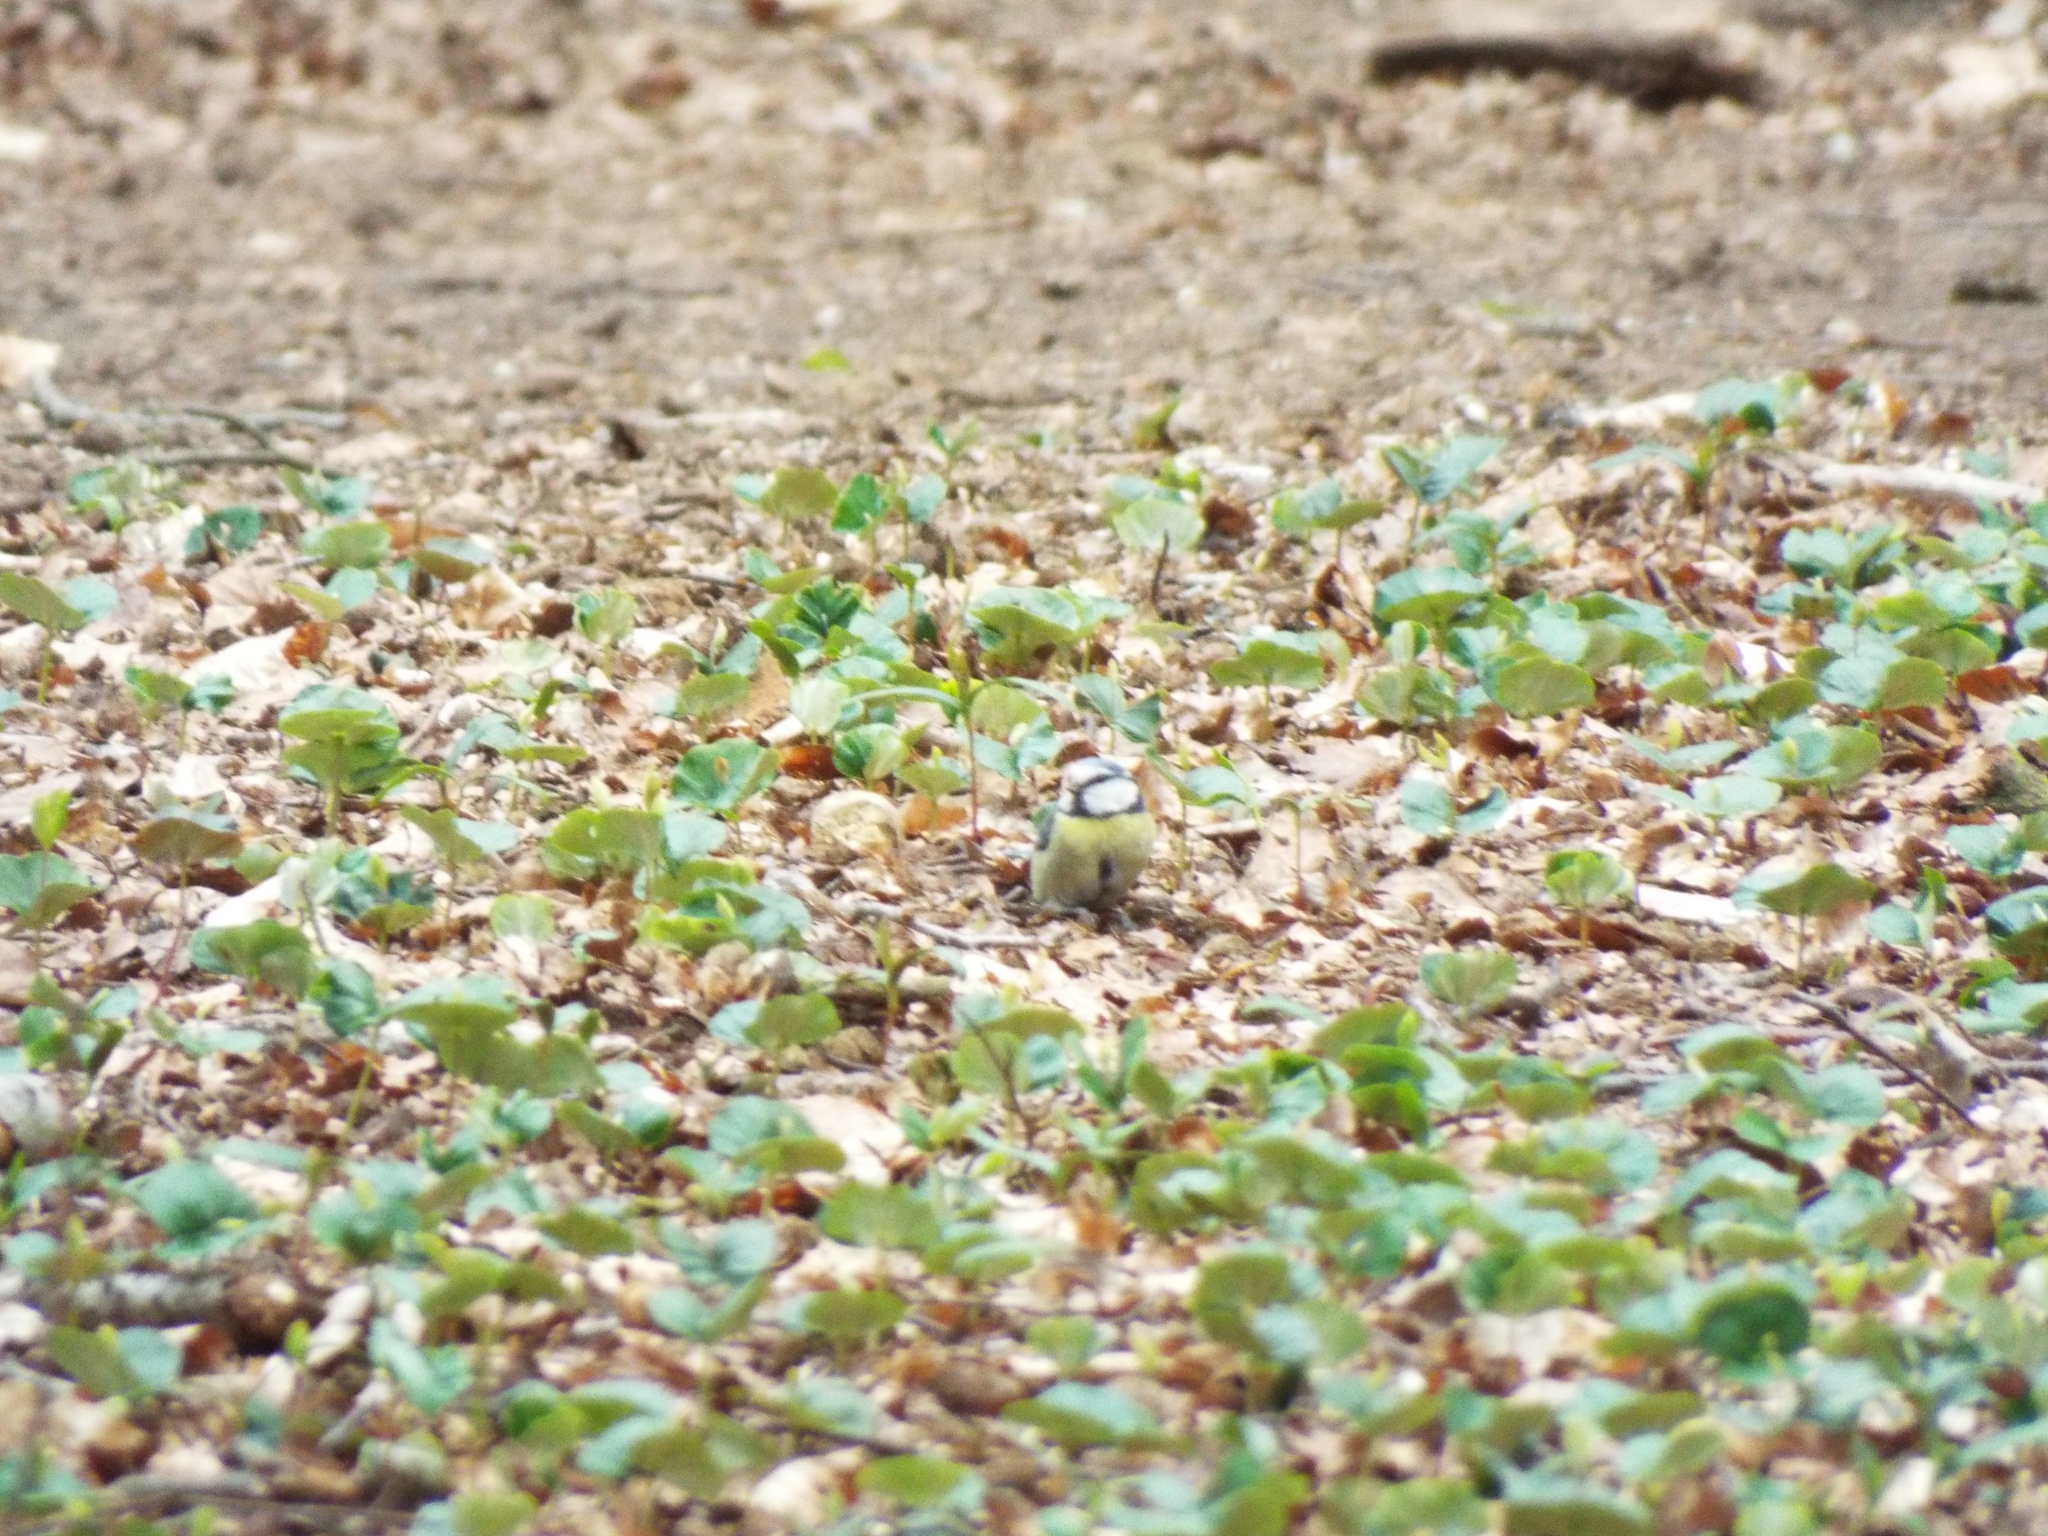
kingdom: Animalia
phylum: Chordata
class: Aves
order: Passeriformes
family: Paridae
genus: Cyanistes
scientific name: Cyanistes caeruleus
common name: Eurasian blue tit
